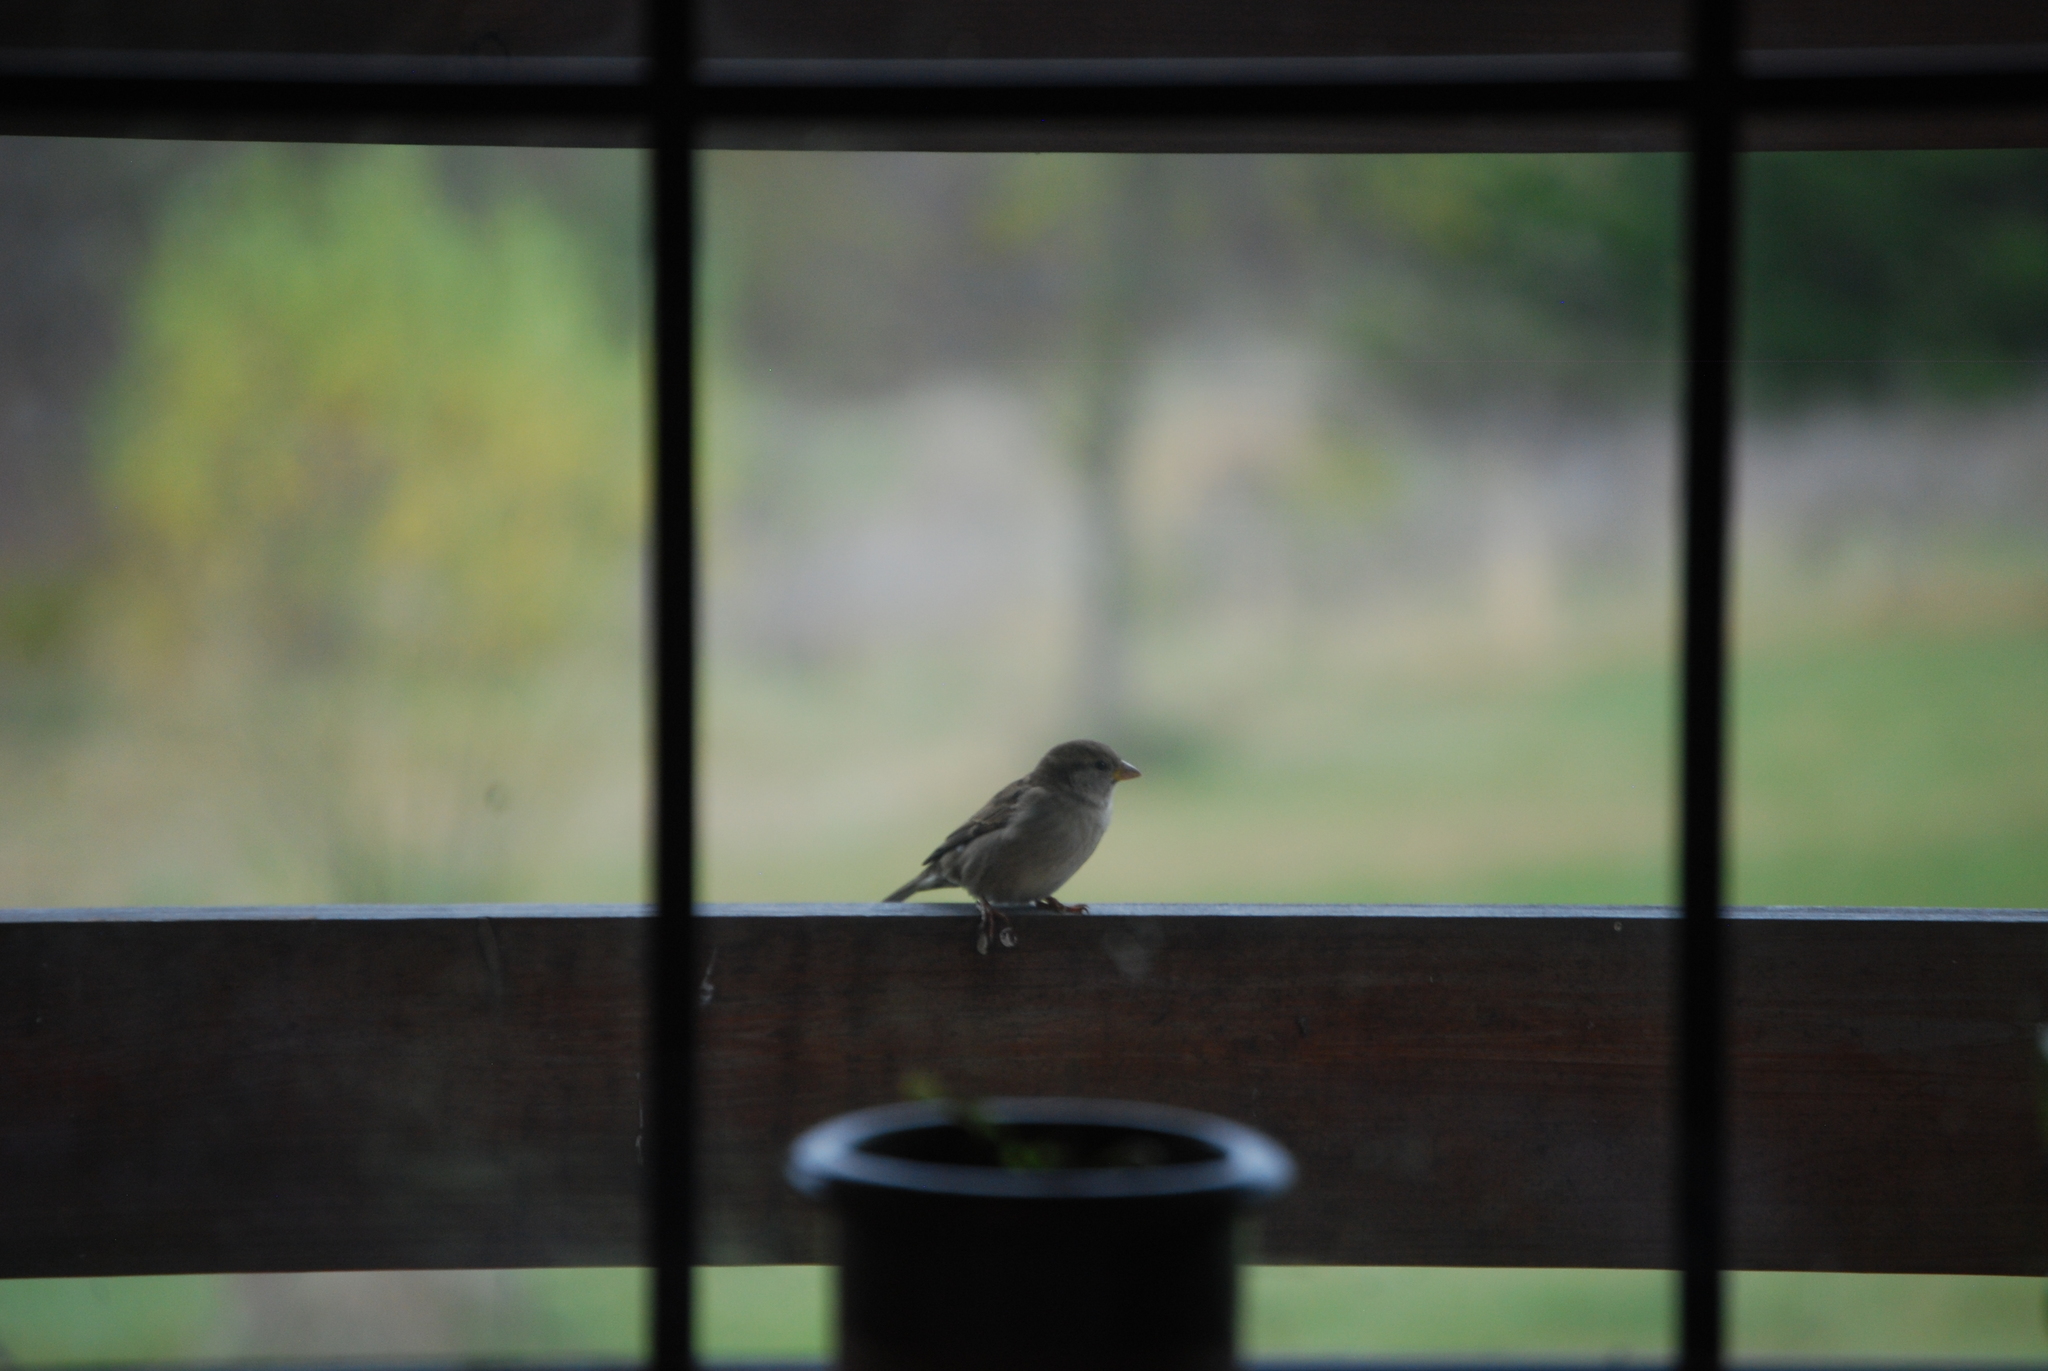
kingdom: Animalia
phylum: Chordata
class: Aves
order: Passeriformes
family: Passeridae
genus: Passer
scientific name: Passer domesticus
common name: House sparrow
